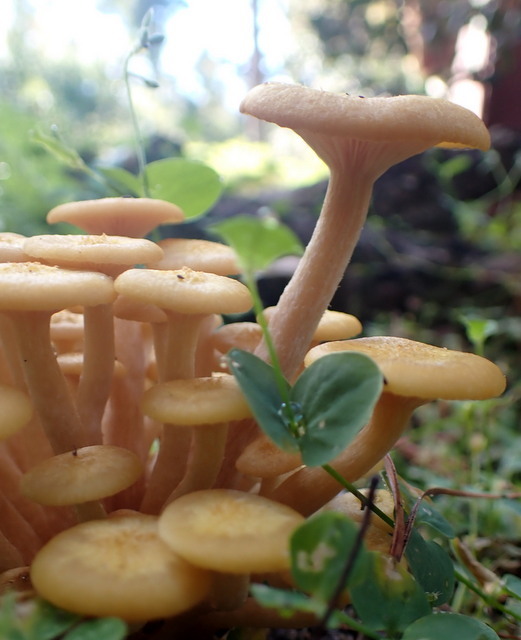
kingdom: Fungi
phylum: Basidiomycota
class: Agaricomycetes
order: Agaricales
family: Physalacriaceae
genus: Desarmillaria
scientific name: Desarmillaria caespitosa
